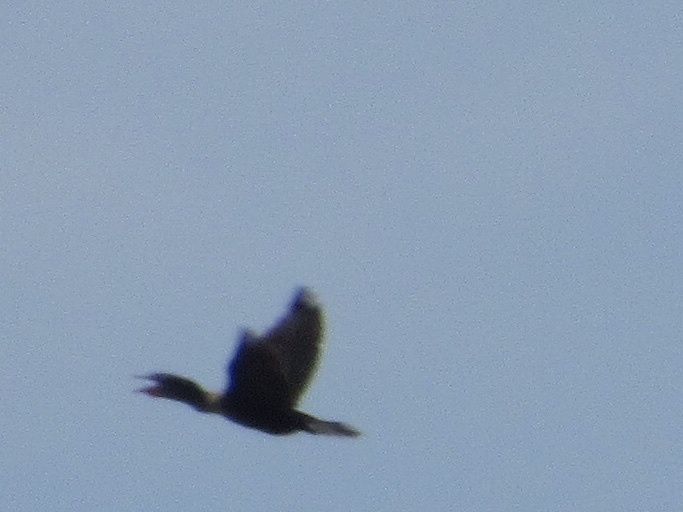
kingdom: Animalia
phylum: Chordata
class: Aves
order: Suliformes
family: Phalacrocoracidae
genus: Phalacrocorax
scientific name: Phalacrocorax auritus
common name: Double-crested cormorant
